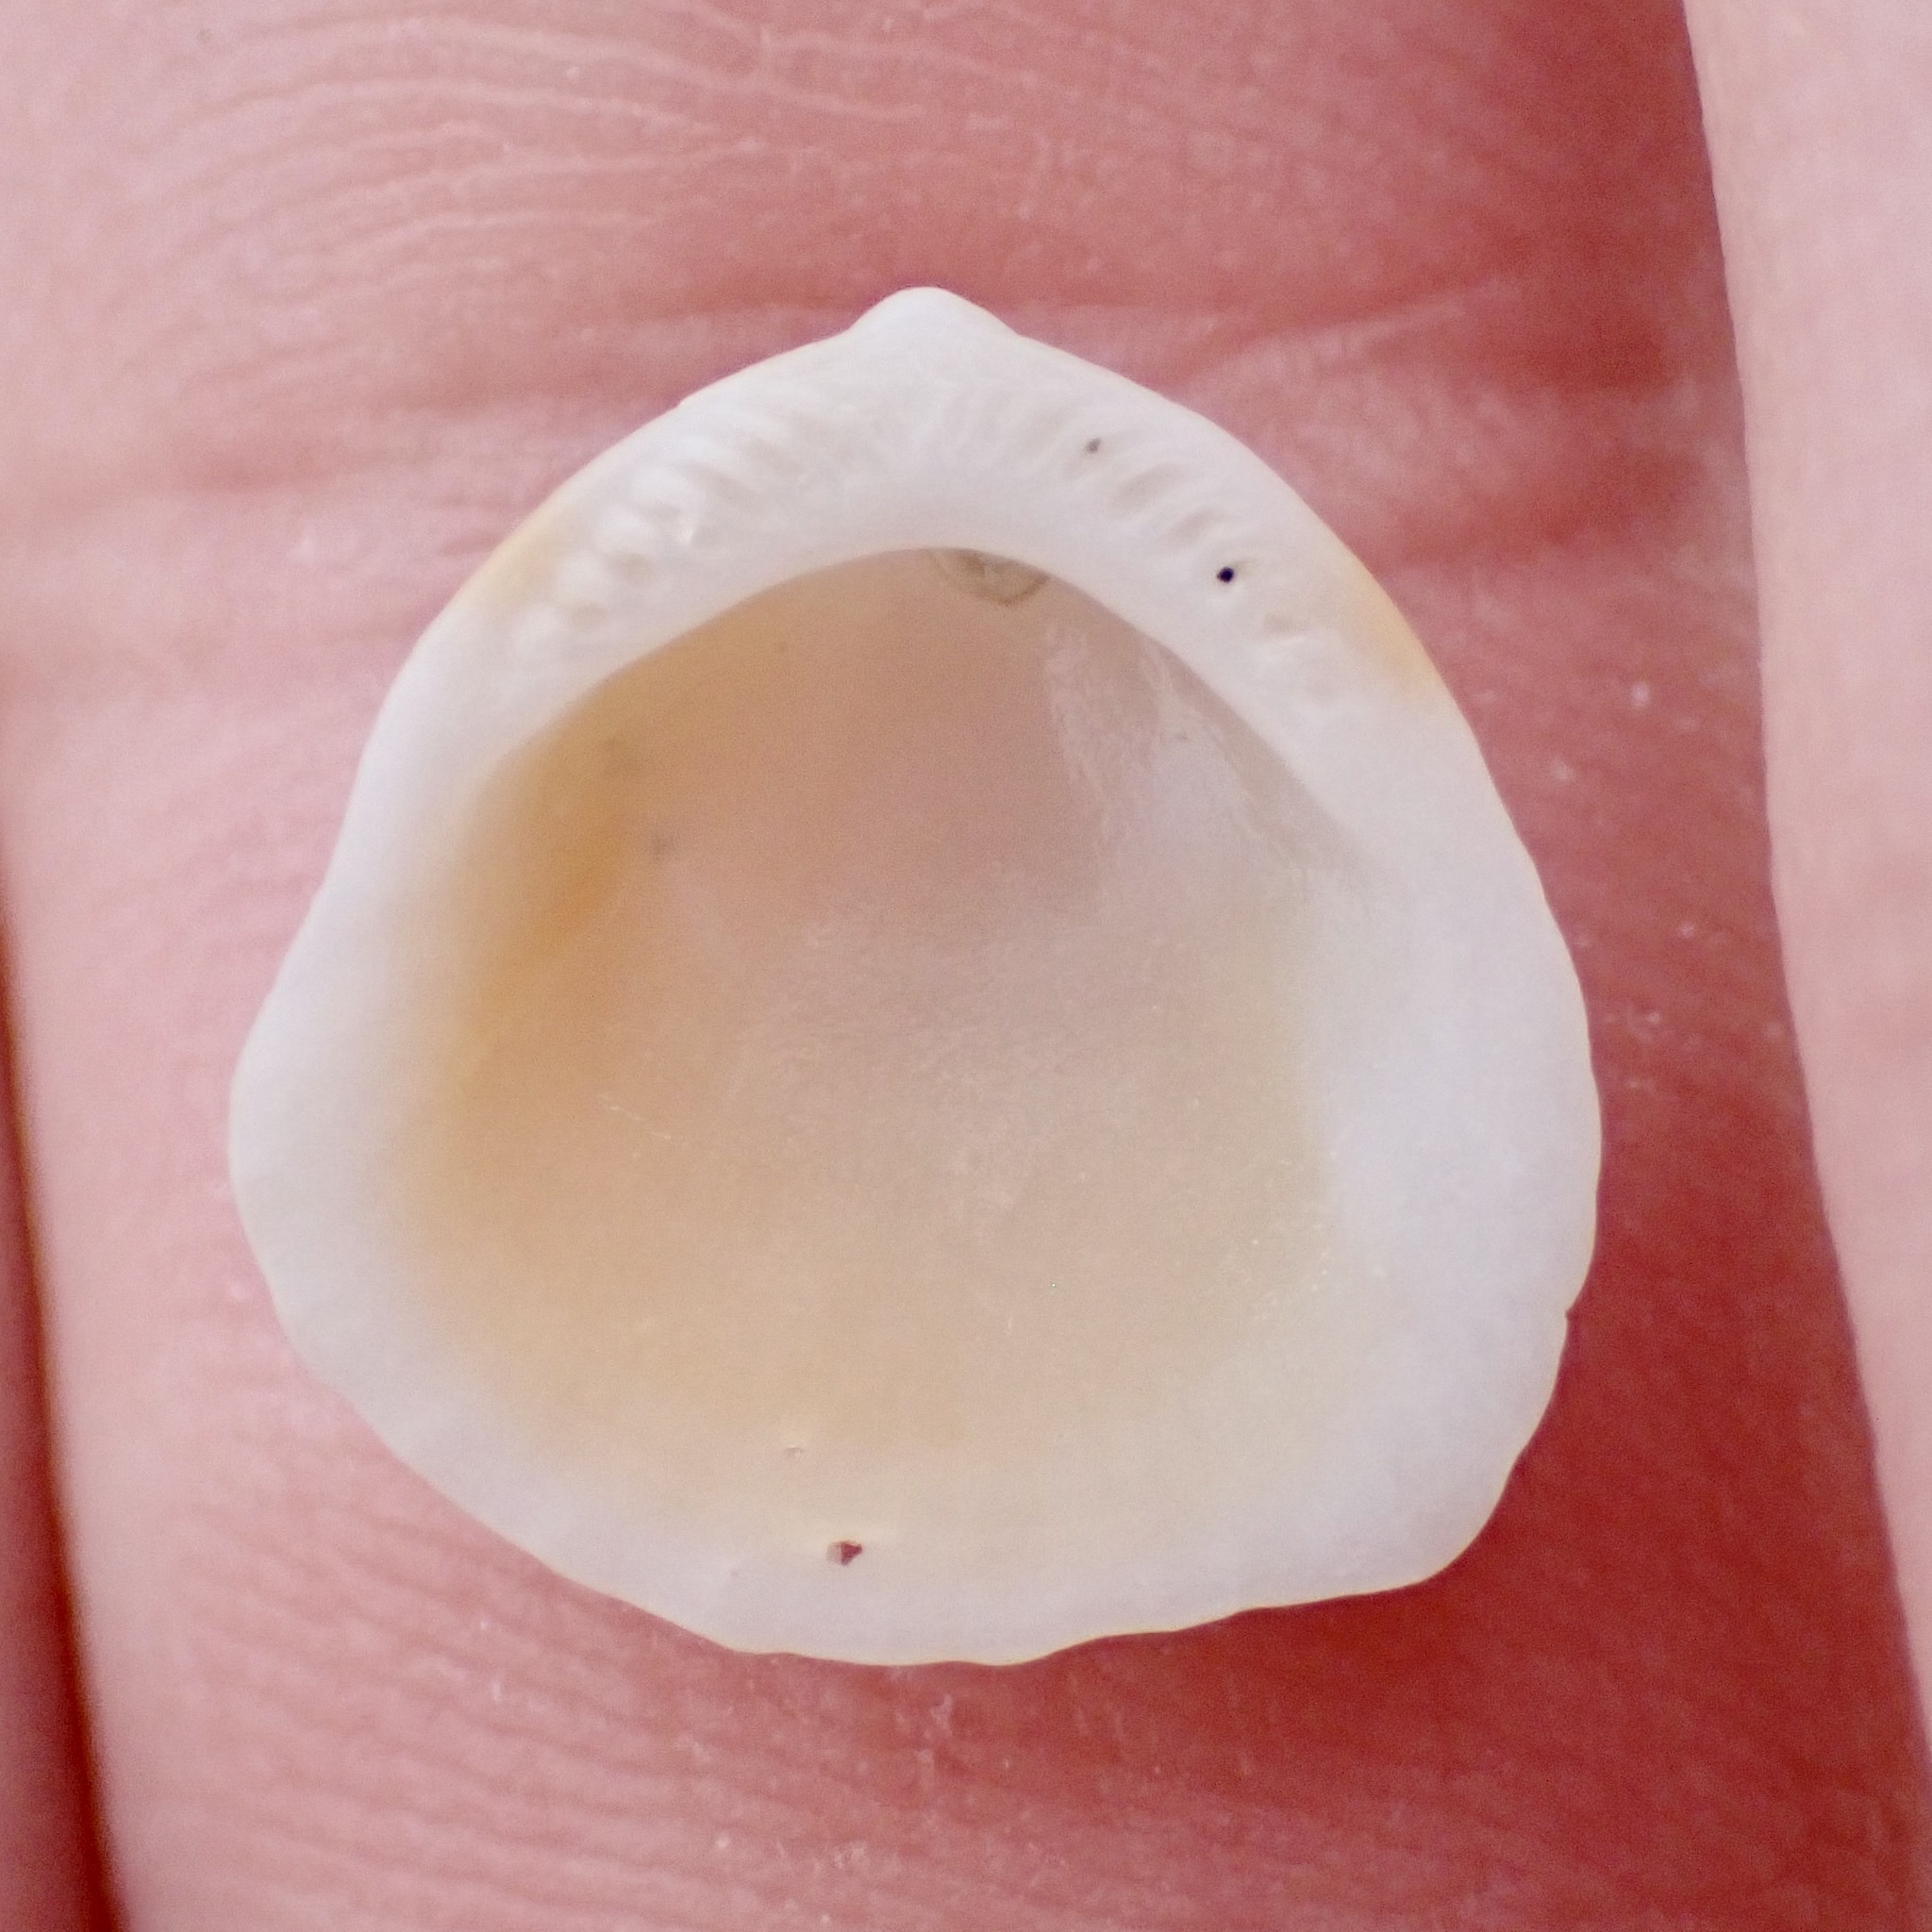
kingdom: Animalia
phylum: Mollusca
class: Bivalvia
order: Arcida
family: Glycymerididae
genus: Tucetona
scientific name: Tucetona pectinata
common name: Comb bittersweet
